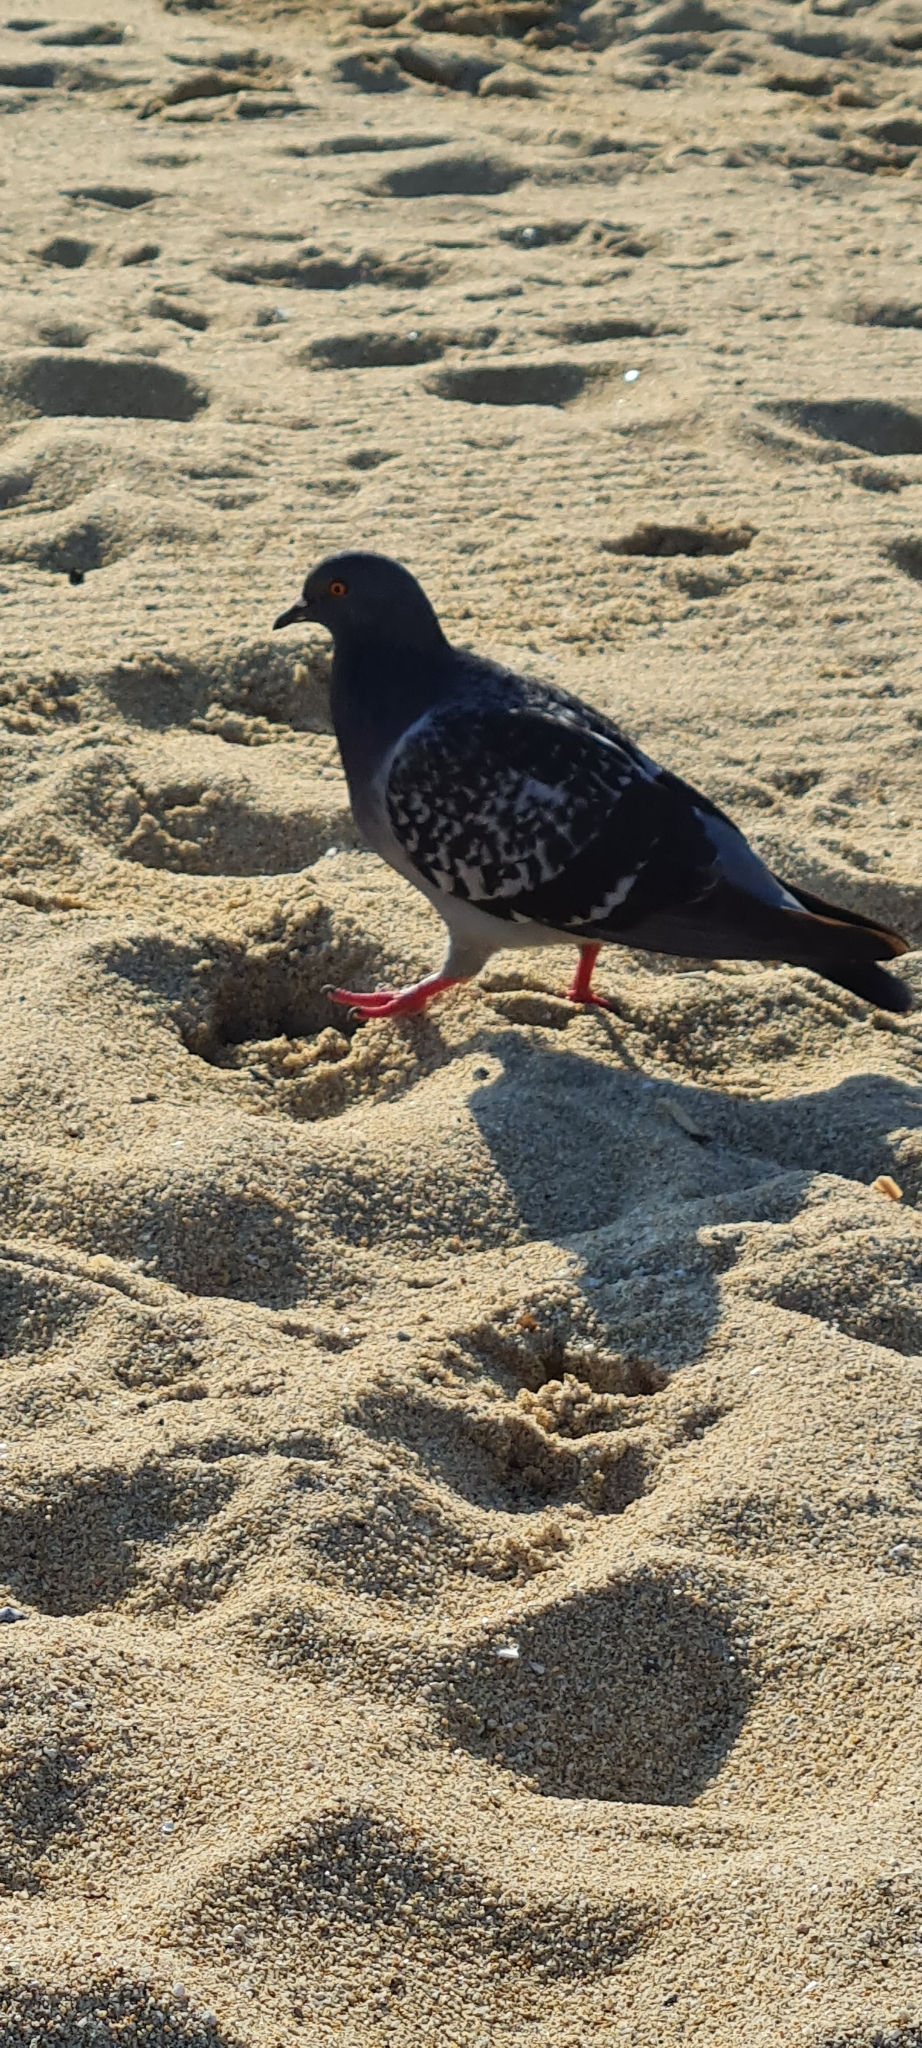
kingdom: Animalia
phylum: Chordata
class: Aves
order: Columbiformes
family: Columbidae
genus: Columba
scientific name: Columba livia
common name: Rock pigeon
